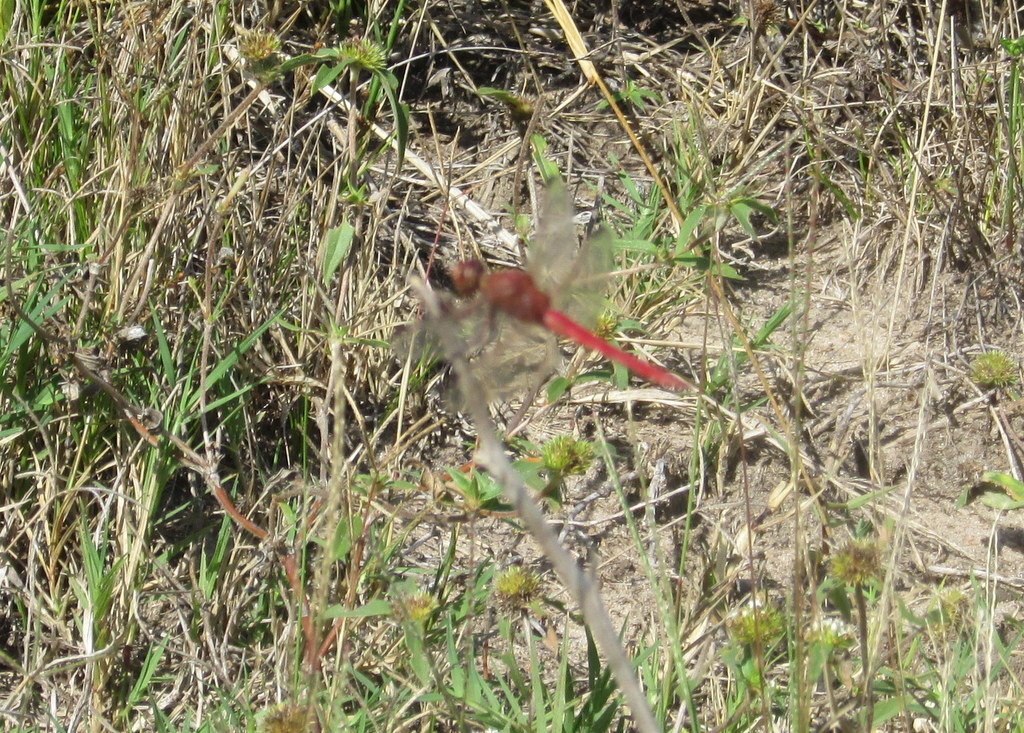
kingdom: Animalia
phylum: Arthropoda
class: Insecta
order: Odonata
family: Libellulidae
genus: Orthemis
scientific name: Orthemis nodiplaga
